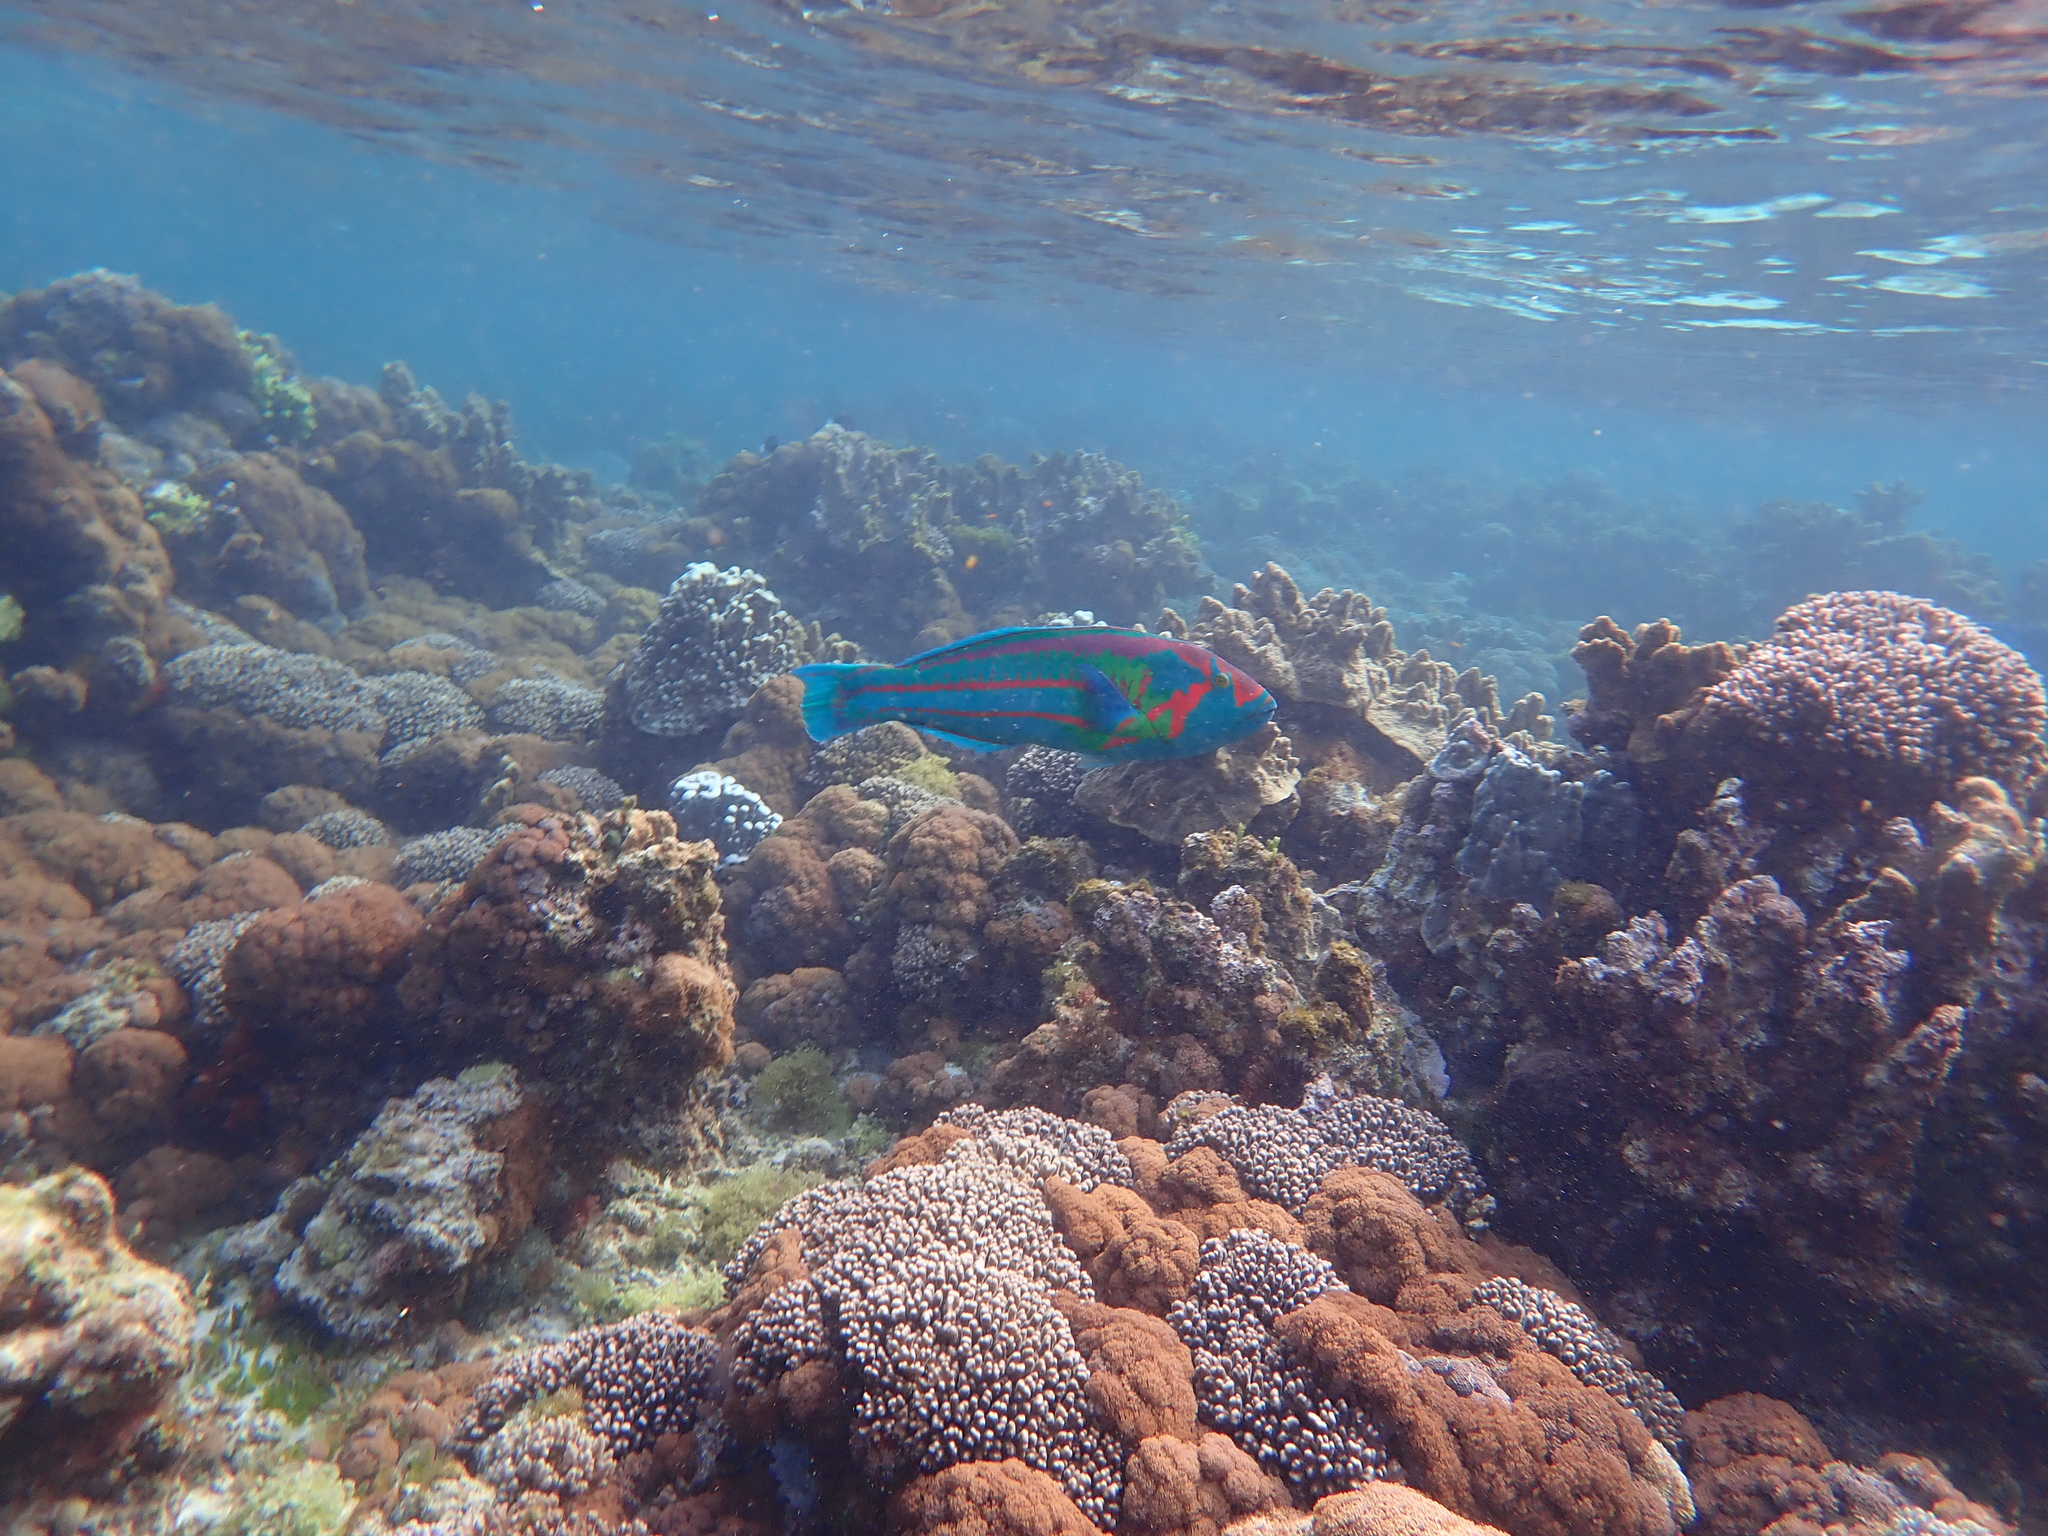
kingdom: Animalia
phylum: Chordata
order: Perciformes
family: Labridae
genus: Thalassoma
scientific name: Thalassoma purpureum
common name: Parrotfish
